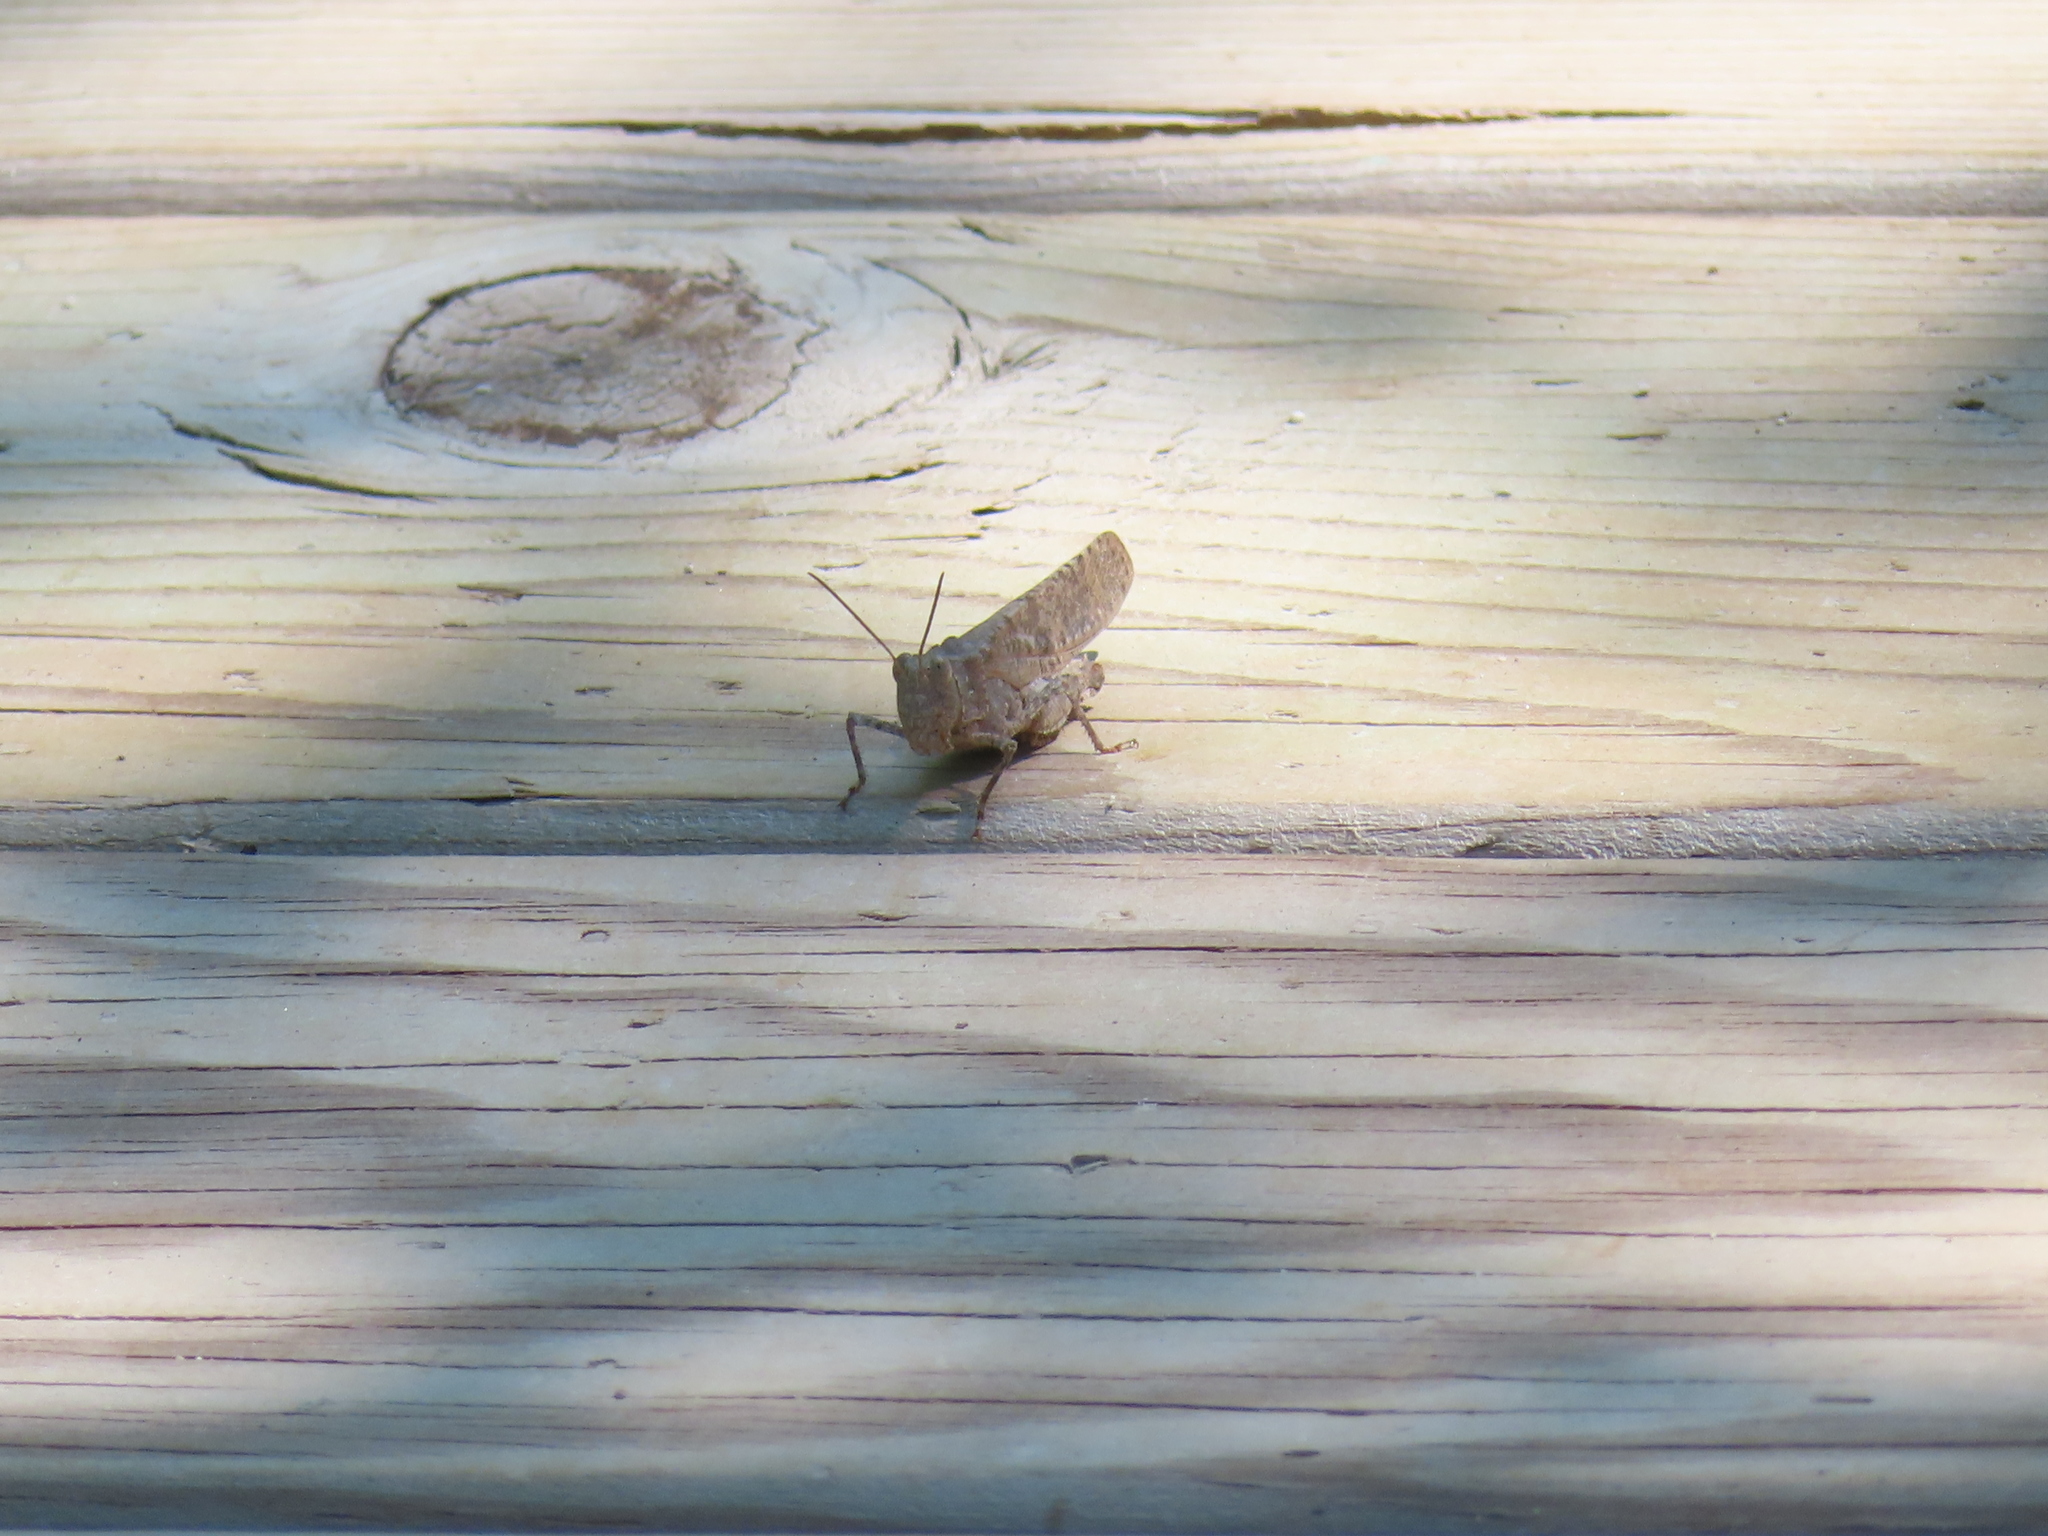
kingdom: Animalia
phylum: Arthropoda
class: Insecta
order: Orthoptera
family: Acrididae
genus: Dissosteira
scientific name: Dissosteira carolina
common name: Carolina grasshopper
